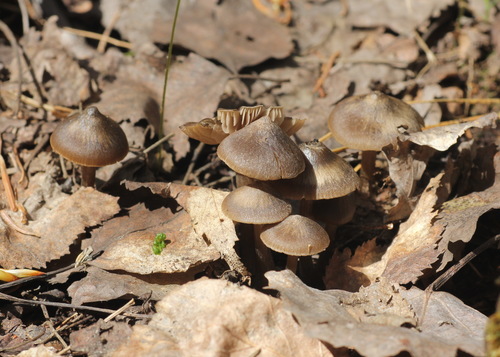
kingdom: Fungi
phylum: Basidiomycota
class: Agaricomycetes
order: Agaricales
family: Entolomataceae
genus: Entoloma
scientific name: Entoloma vernum
